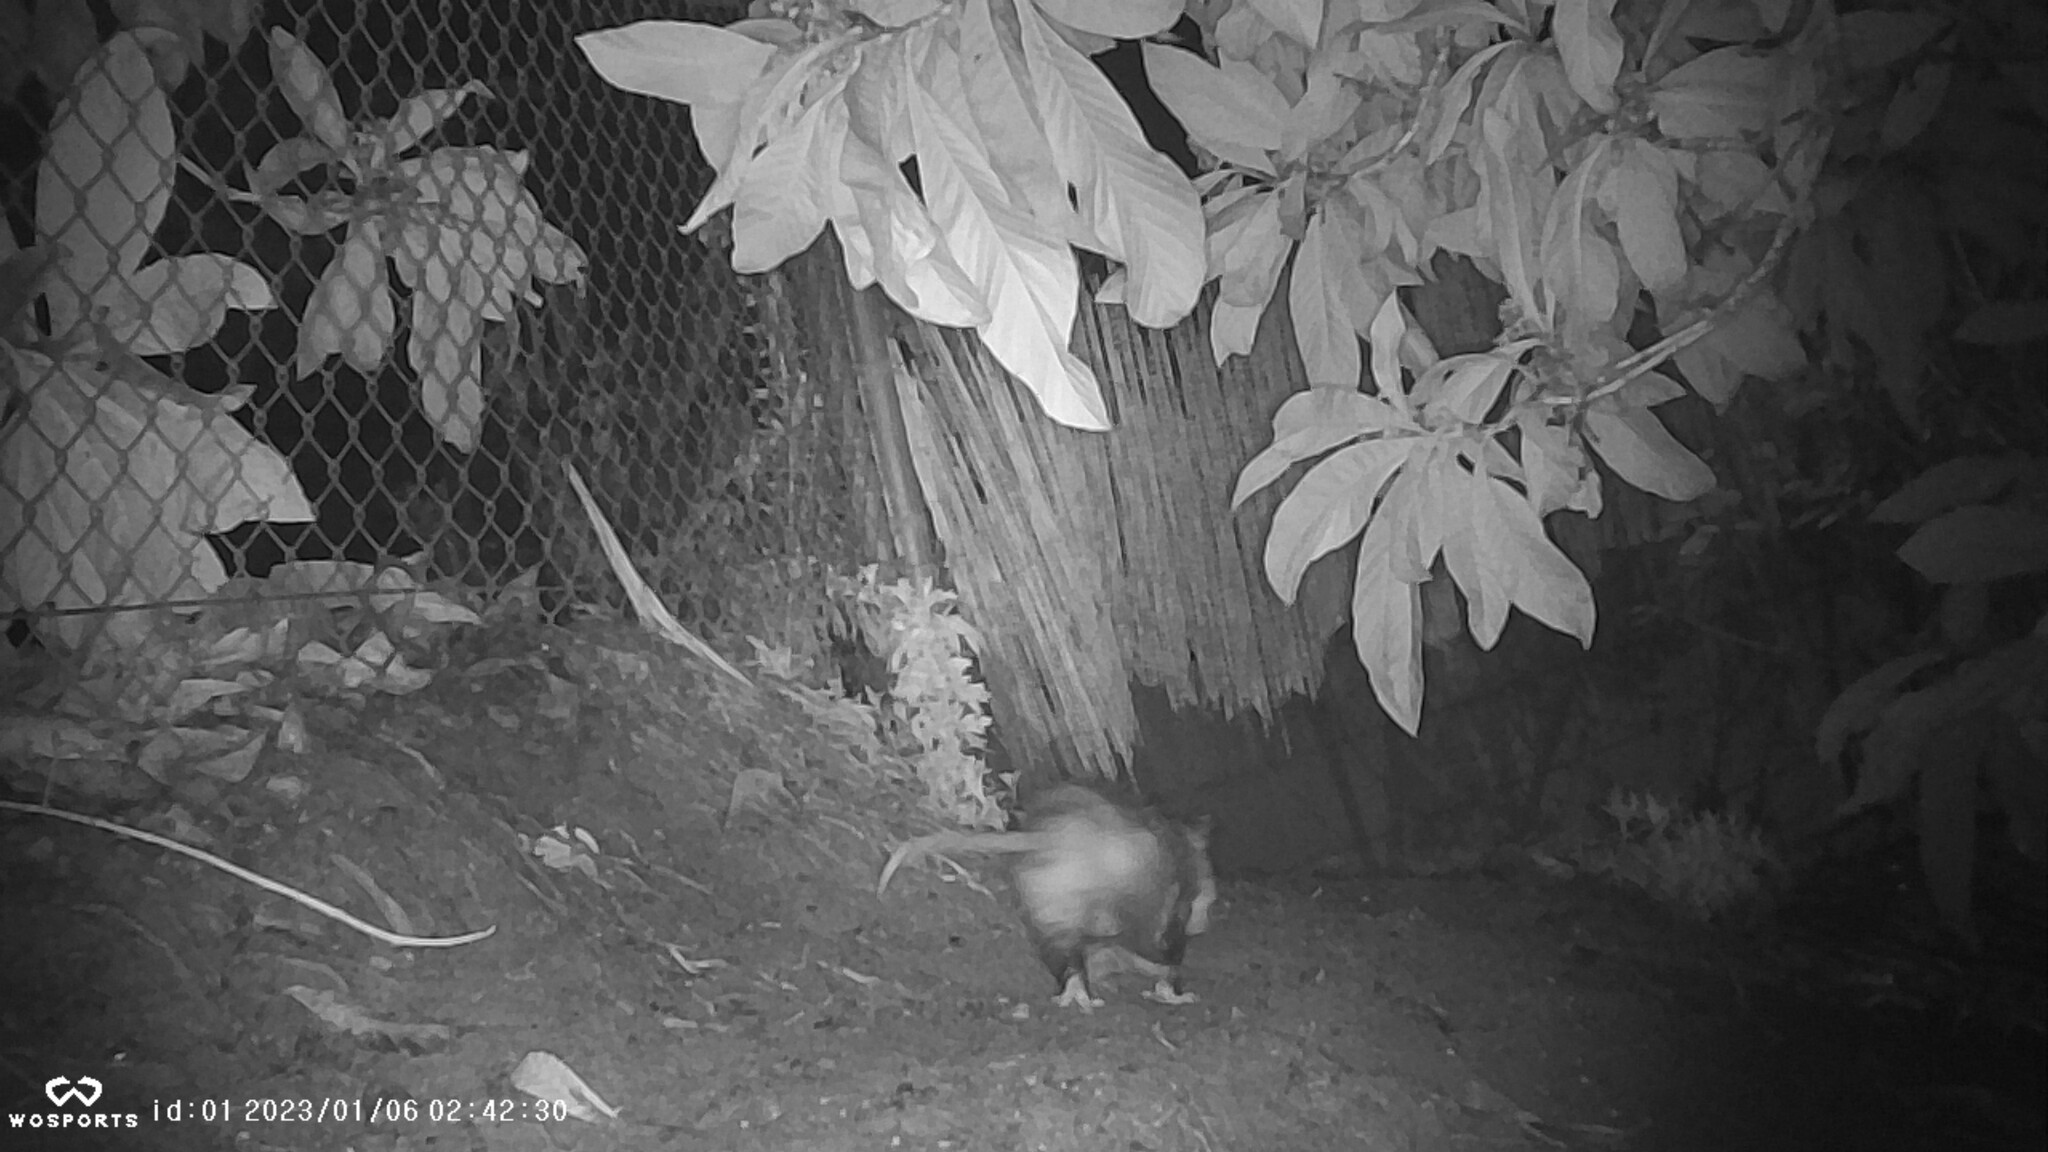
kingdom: Animalia
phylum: Chordata
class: Mammalia
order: Didelphimorphia
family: Didelphidae
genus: Didelphis
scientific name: Didelphis virginiana
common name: Virginia opossum
